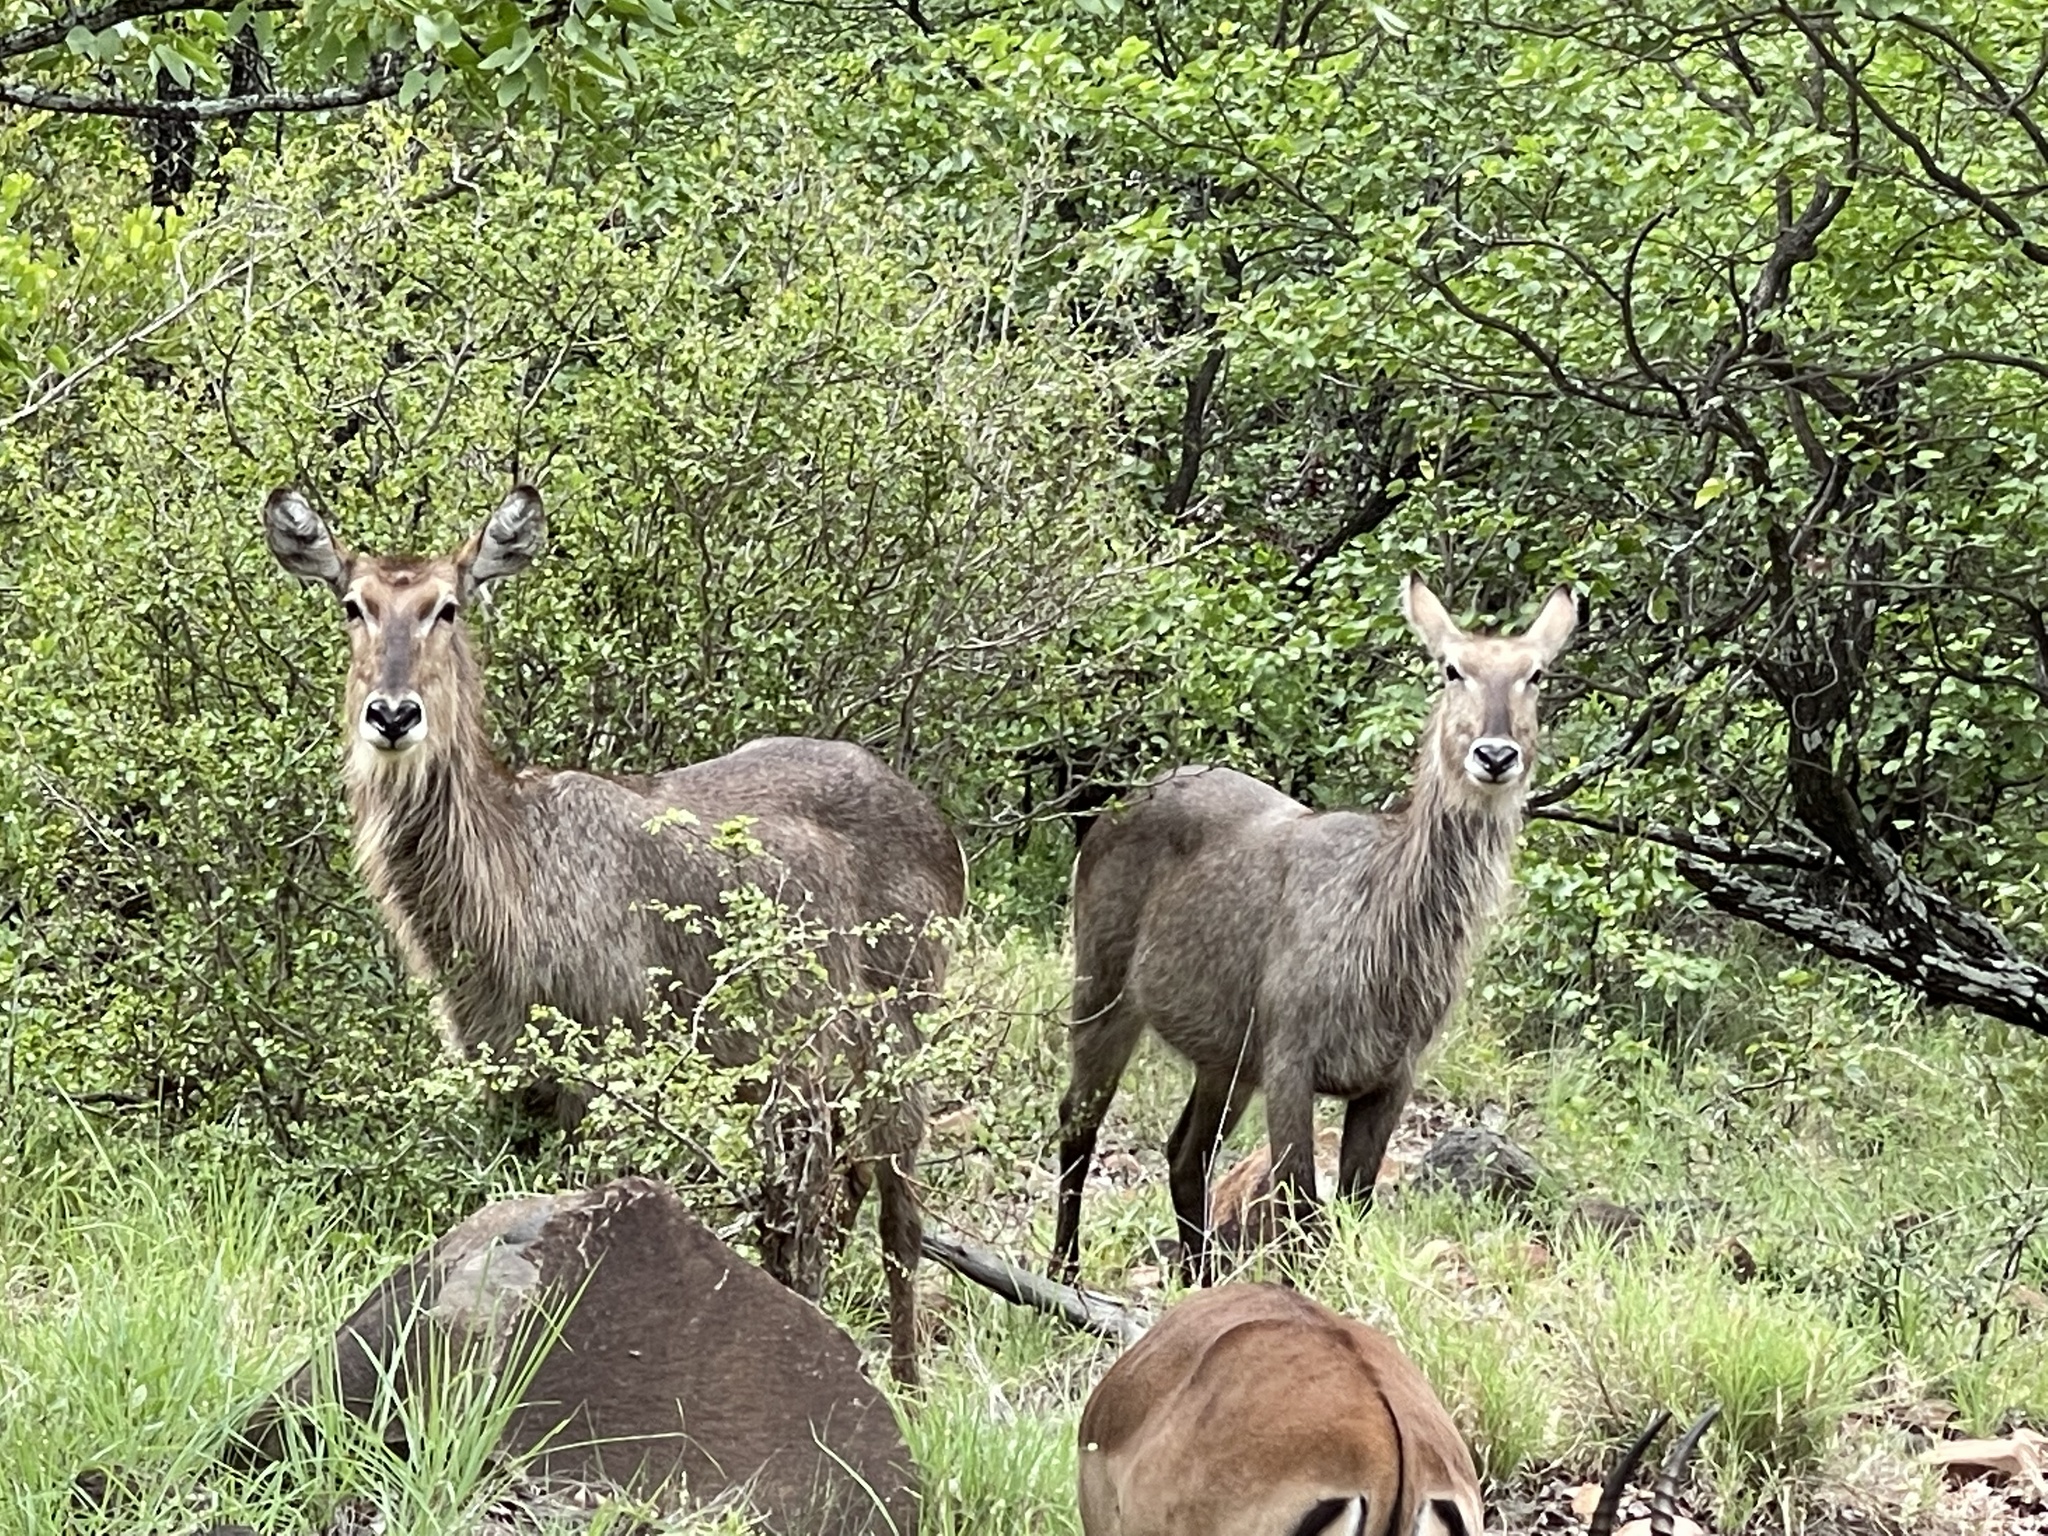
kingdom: Animalia
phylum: Chordata
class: Mammalia
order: Artiodactyla
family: Bovidae
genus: Kobus
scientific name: Kobus ellipsiprymnus
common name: Waterbuck
